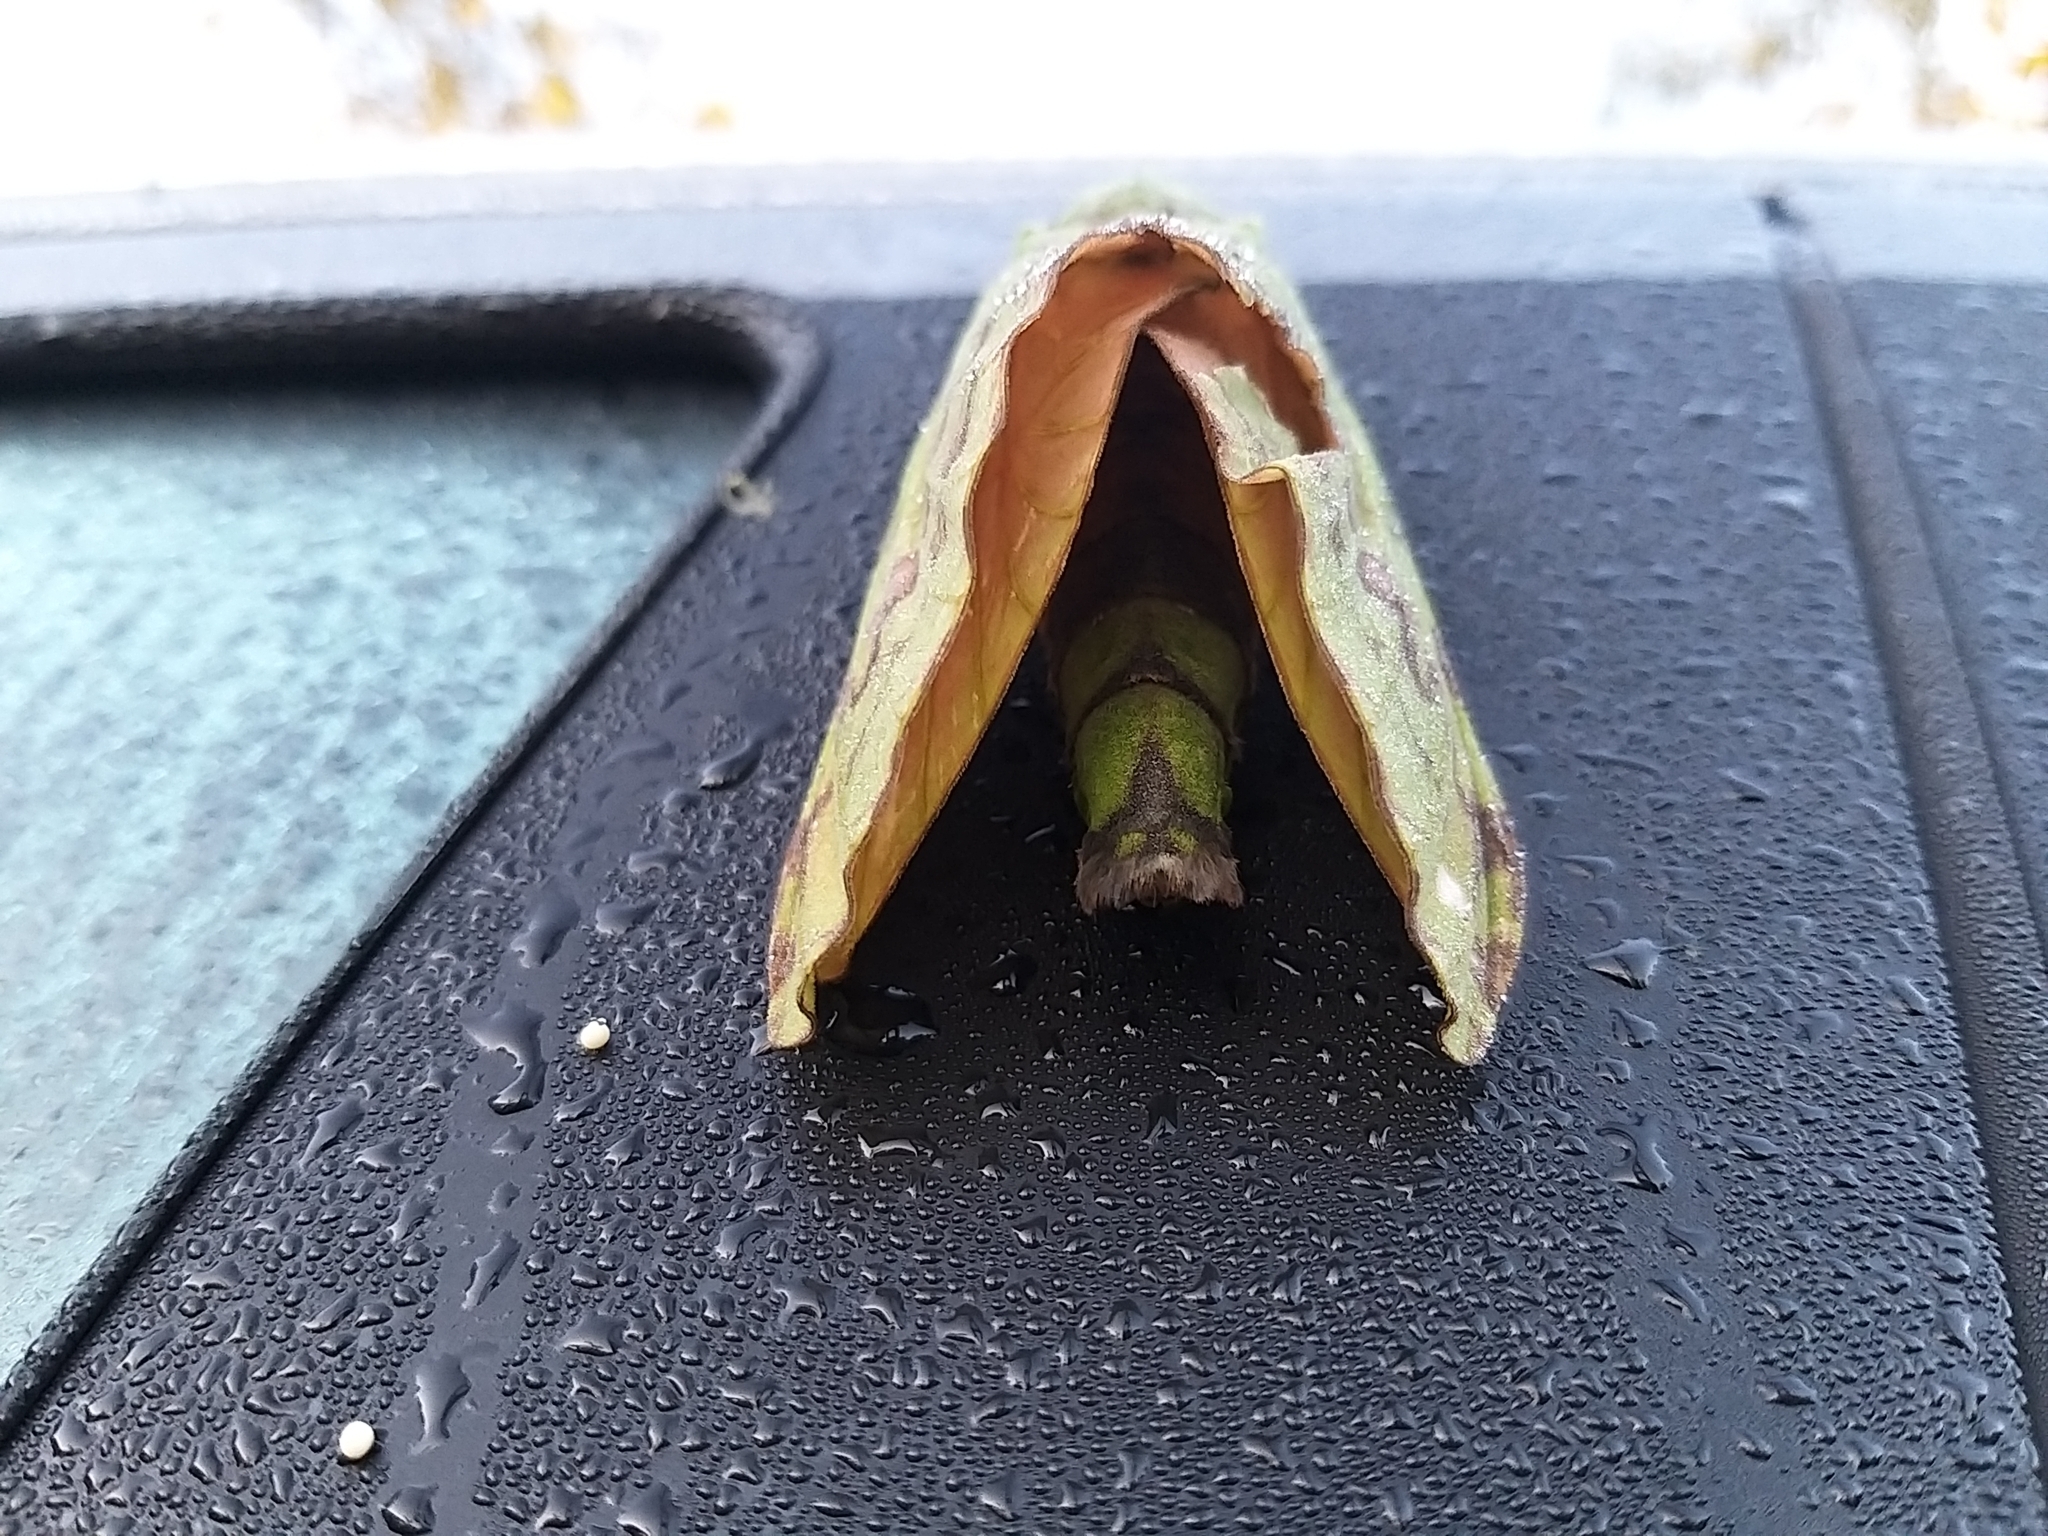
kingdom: Animalia
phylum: Arthropoda
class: Insecta
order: Lepidoptera
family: Hepialidae
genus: Aenetus
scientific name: Aenetus virescens
